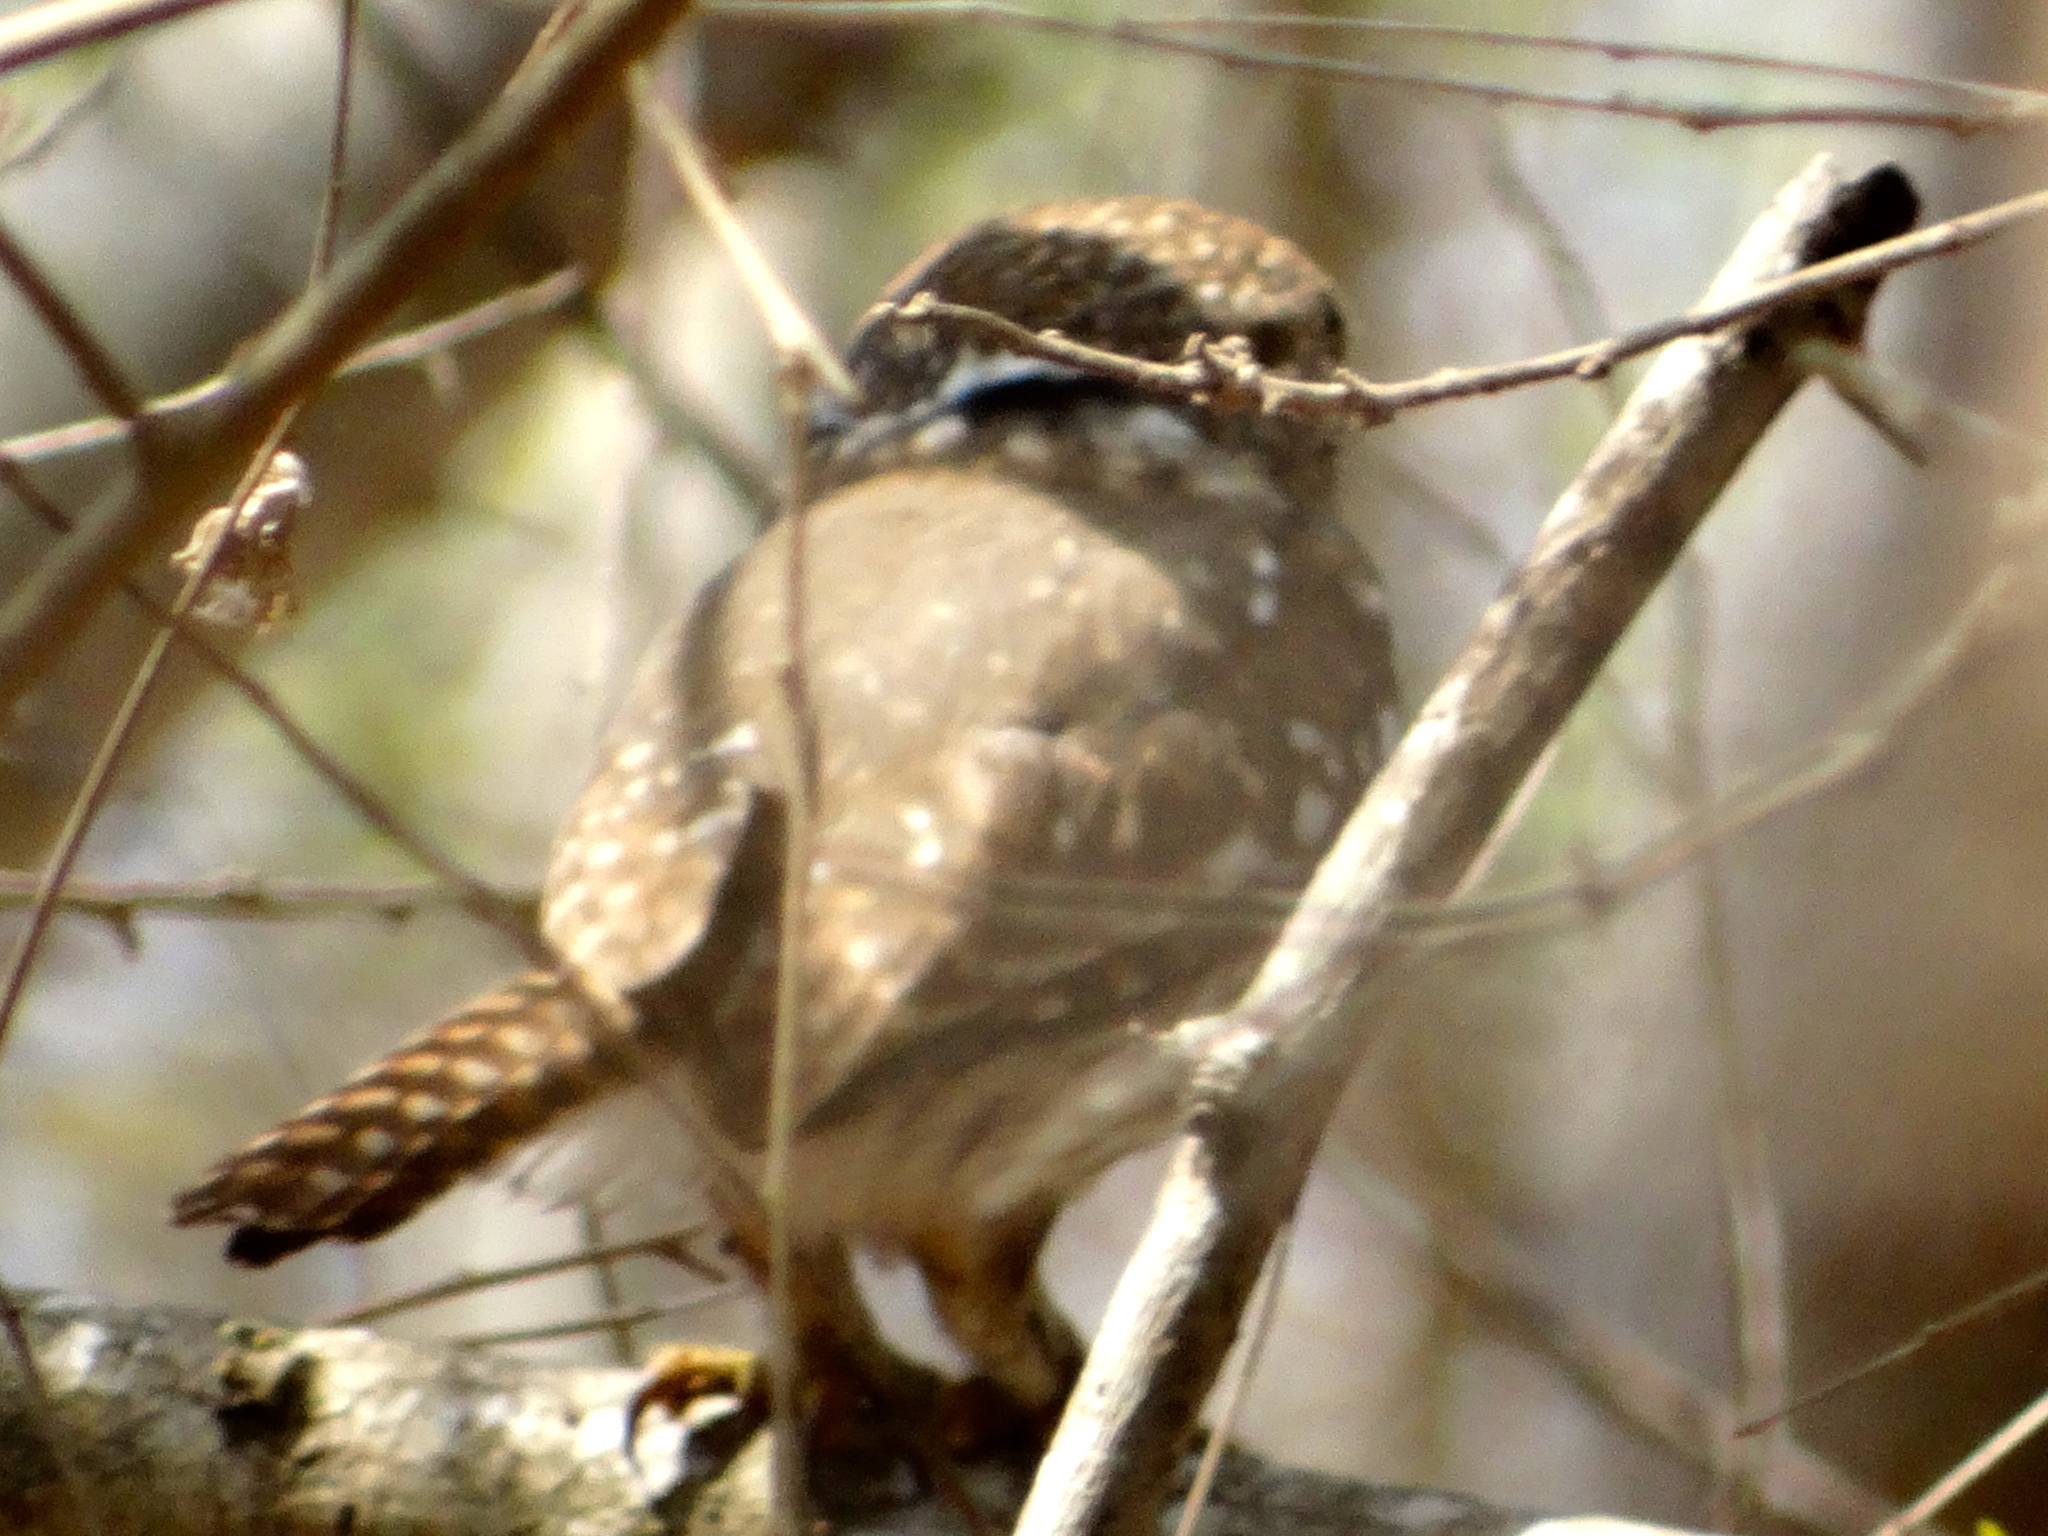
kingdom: Animalia
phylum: Chordata
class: Aves
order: Strigiformes
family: Strigidae
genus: Glaucidium
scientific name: Glaucidium brasilianum
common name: Ferruginous pygmy-owl
